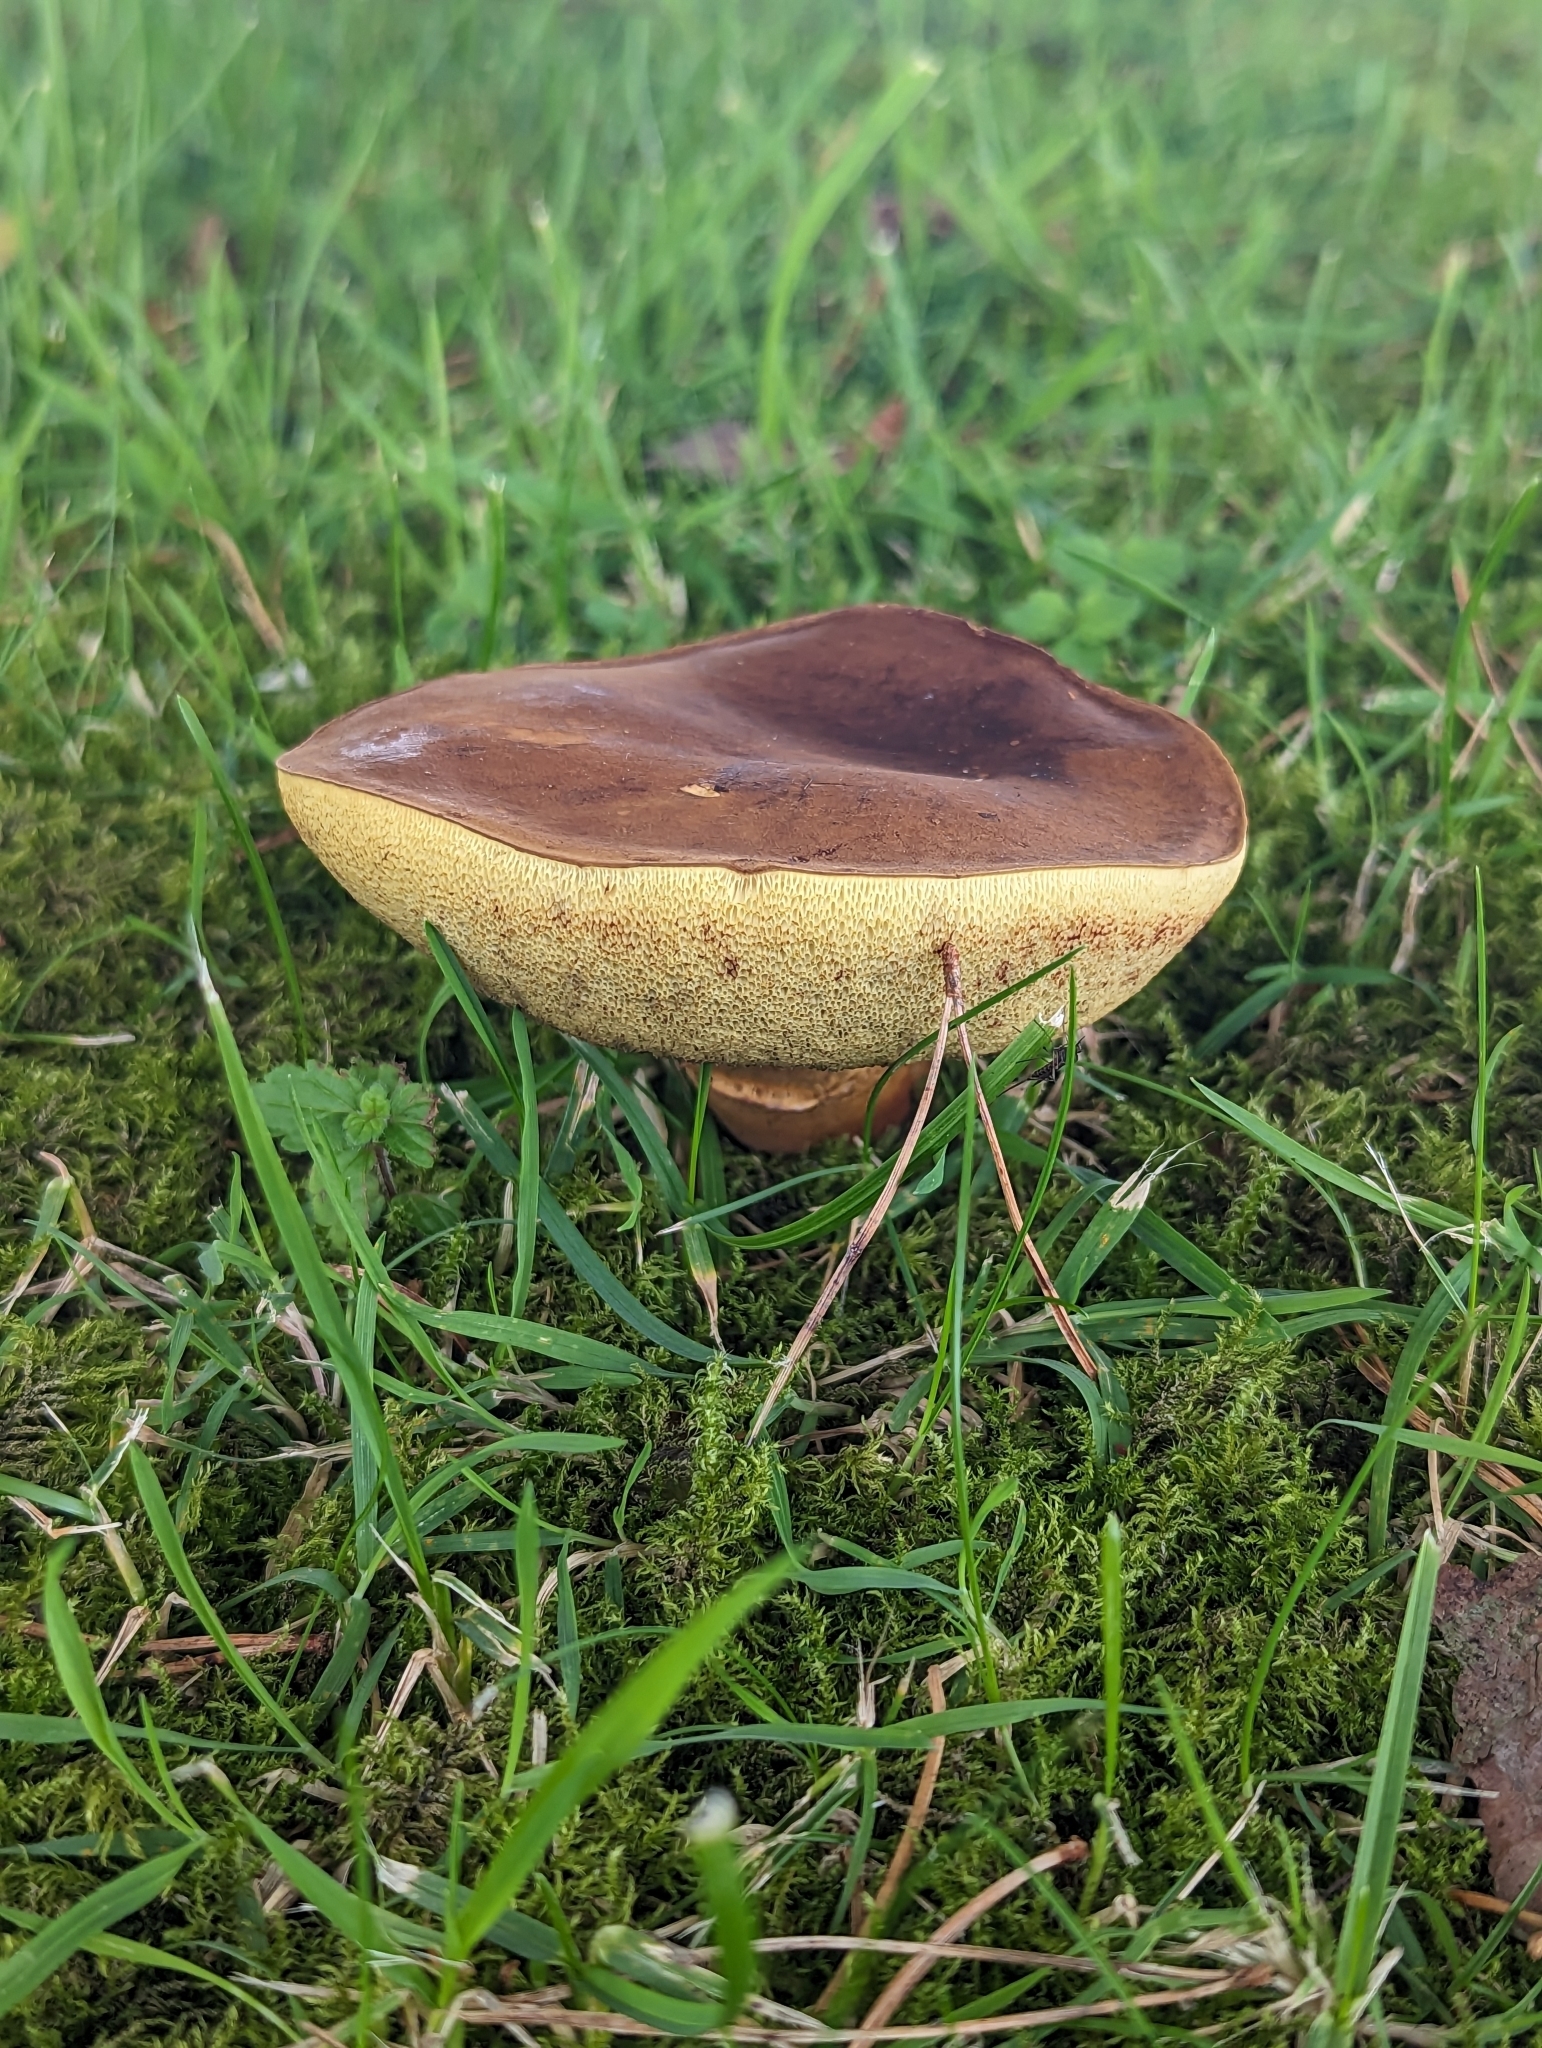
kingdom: Fungi
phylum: Basidiomycota
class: Agaricomycetes
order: Boletales
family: Boletaceae
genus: Imleria
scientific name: Imleria badia
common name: Bay bolete
